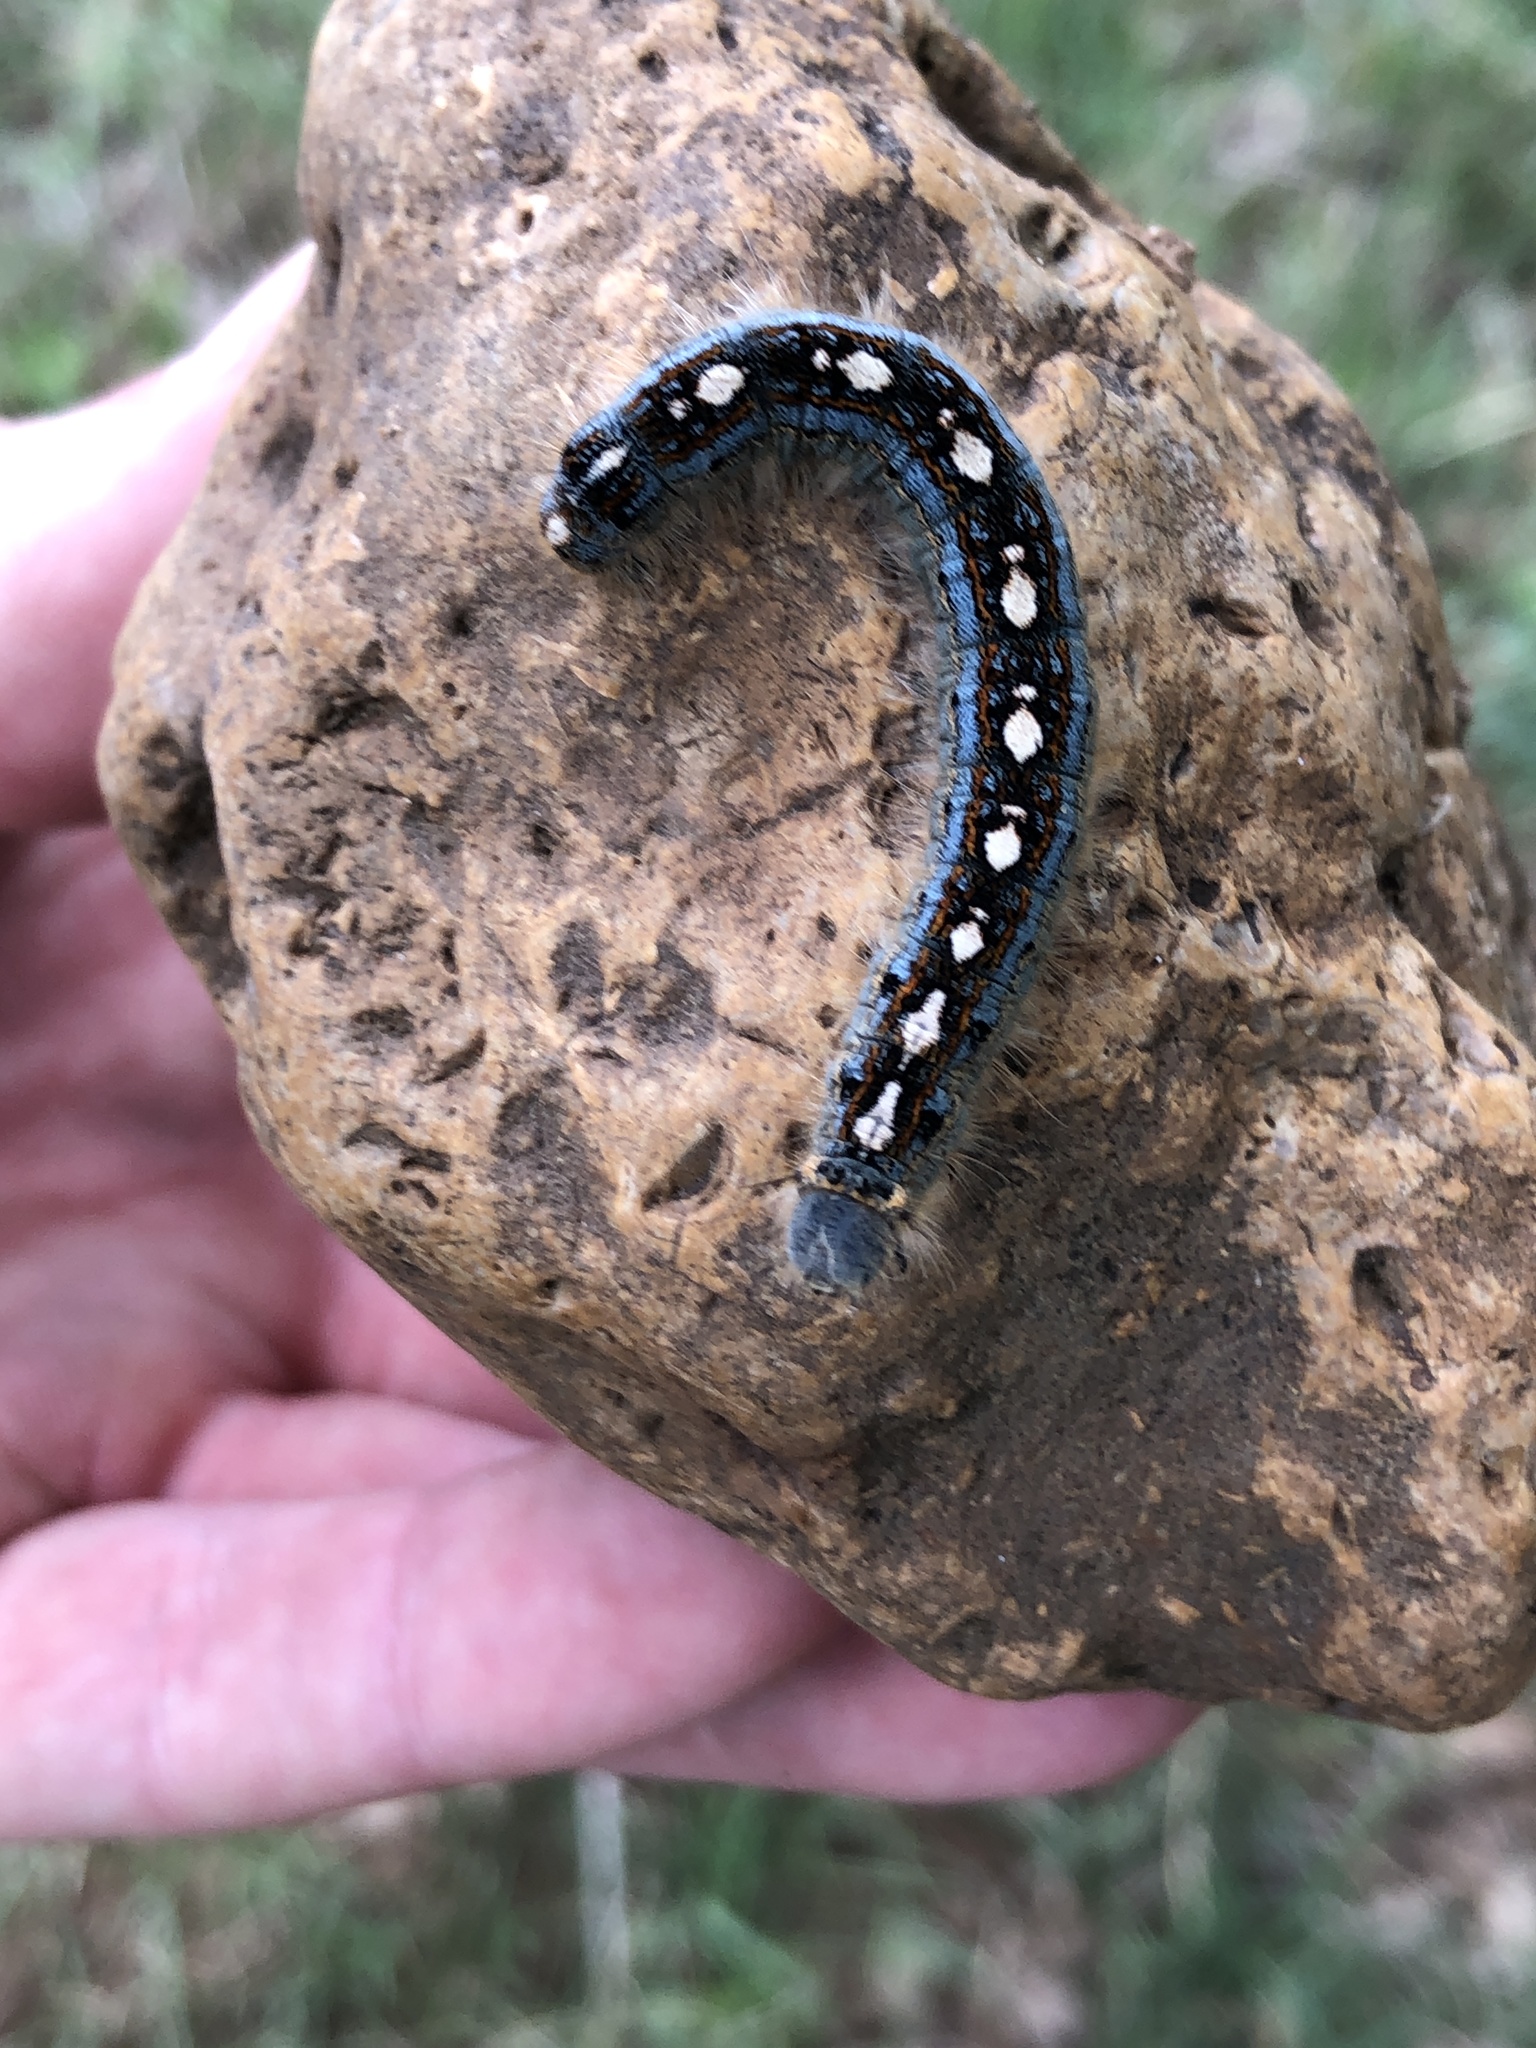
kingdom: Animalia
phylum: Arthropoda
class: Insecta
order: Lepidoptera
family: Lasiocampidae
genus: Malacosoma
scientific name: Malacosoma disstria
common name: Forest tent caterpillar
